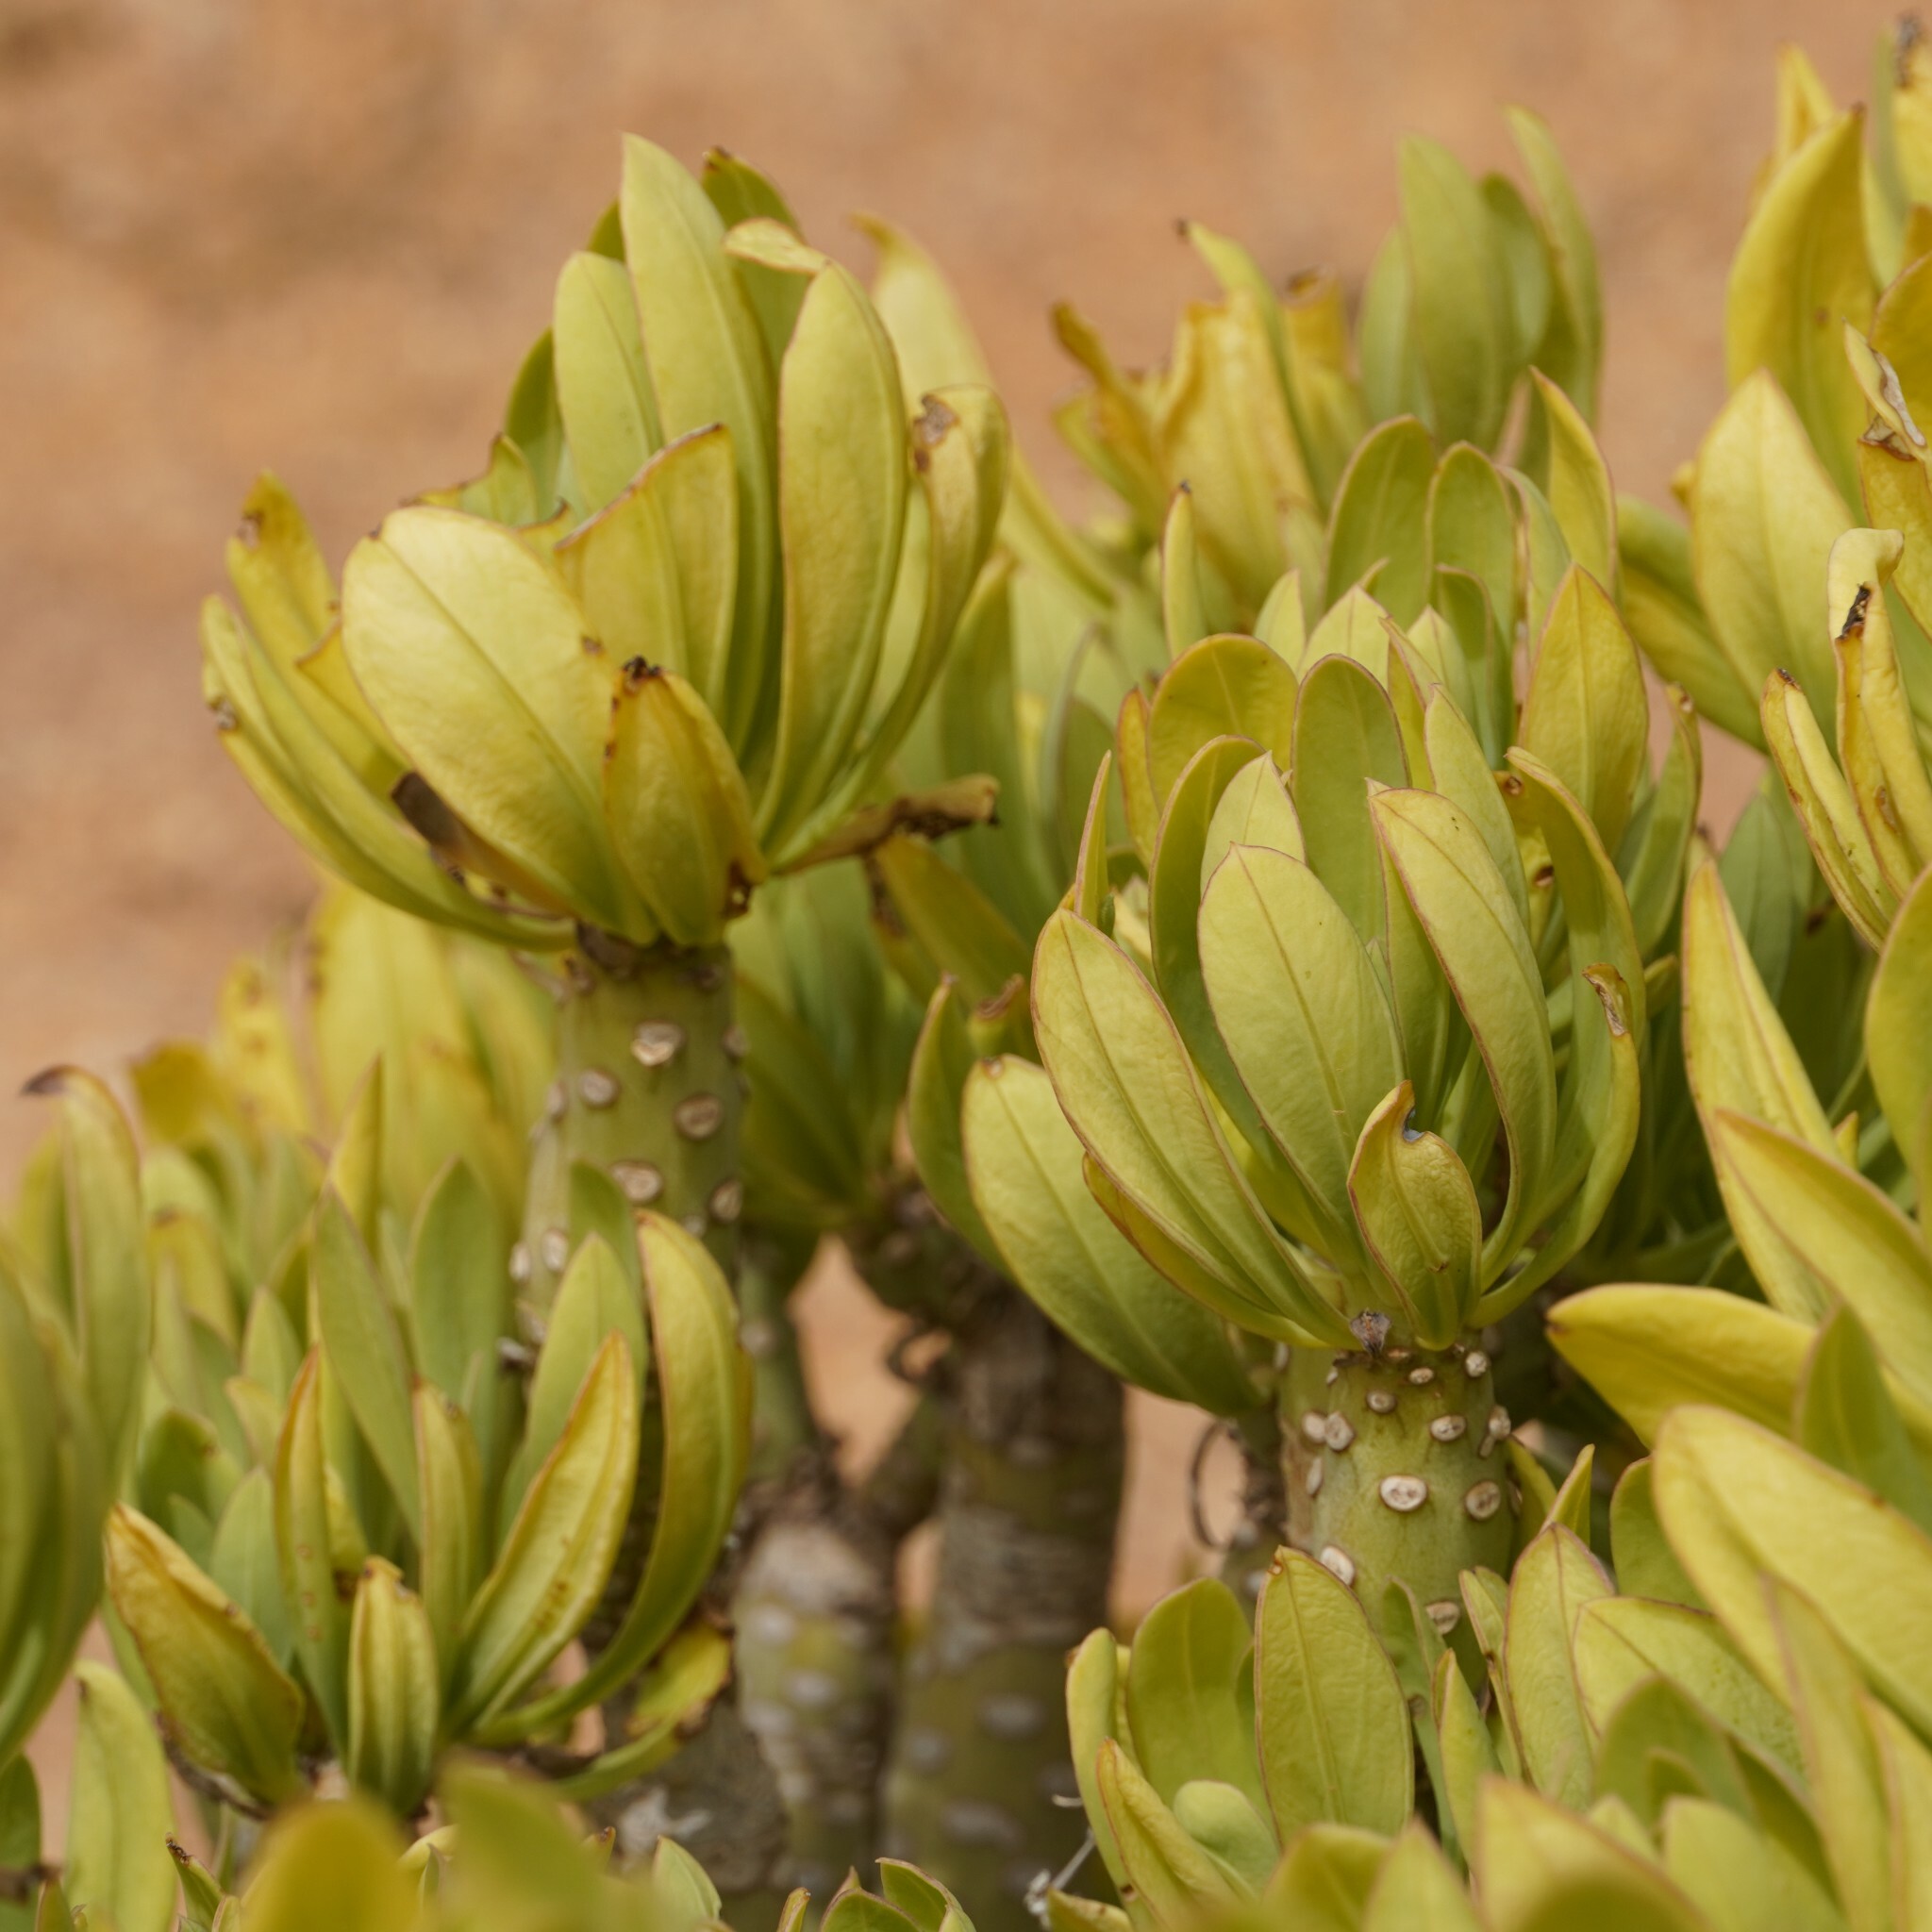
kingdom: Plantae
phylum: Tracheophyta
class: Magnoliopsida
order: Asterales
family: Asteraceae
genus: Kleinia
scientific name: Kleinia neriifolia
